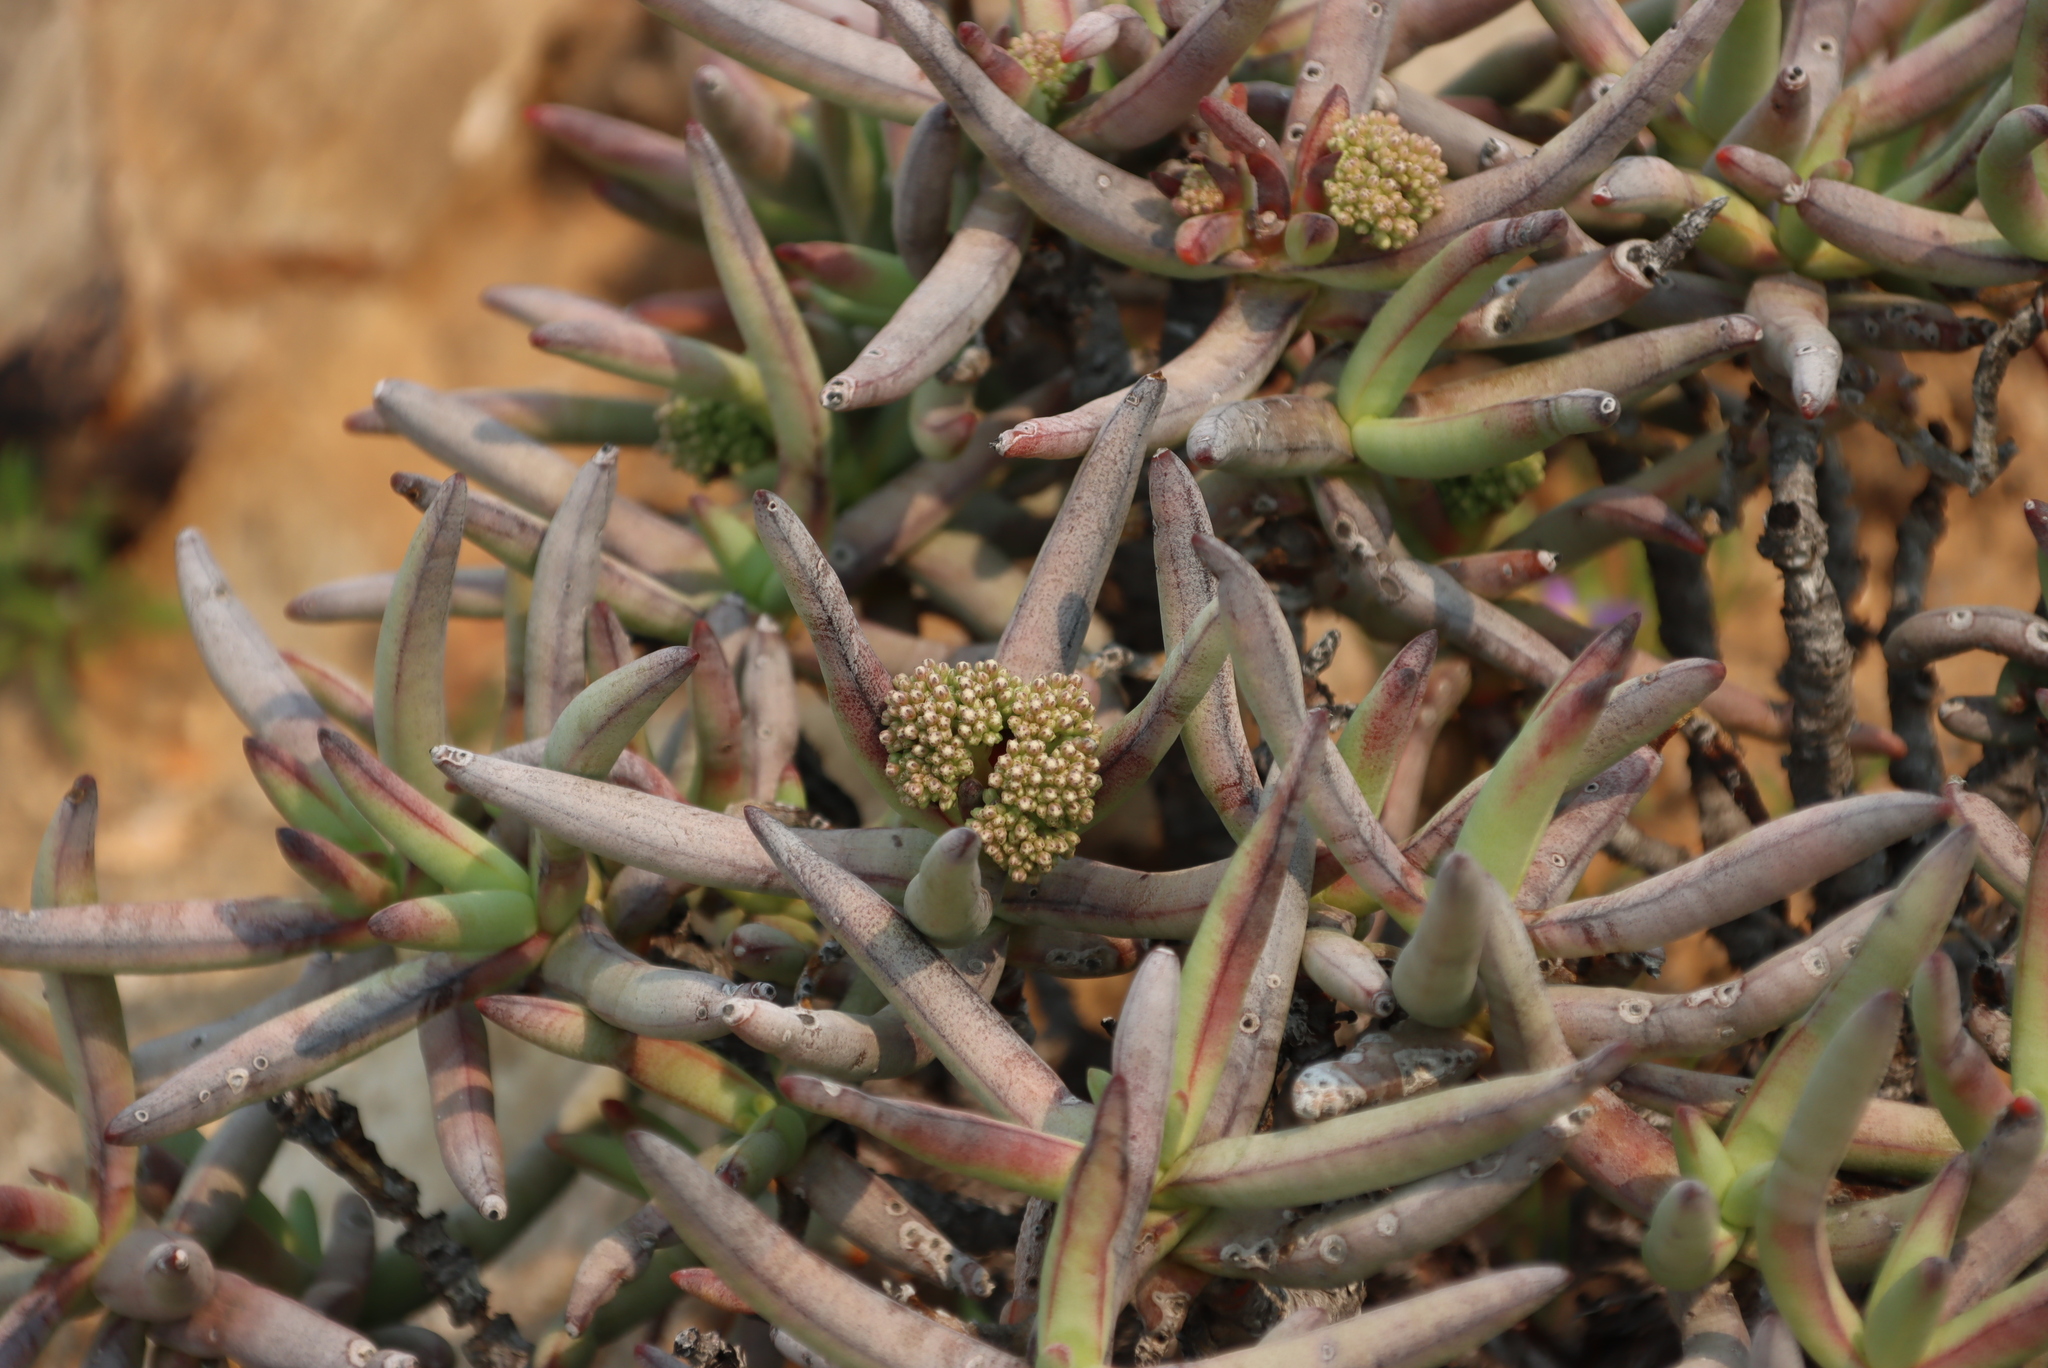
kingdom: Plantae
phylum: Tracheophyta
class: Magnoliopsida
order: Saxifragales
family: Crassulaceae
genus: Crassula
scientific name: Crassula macowaniana
